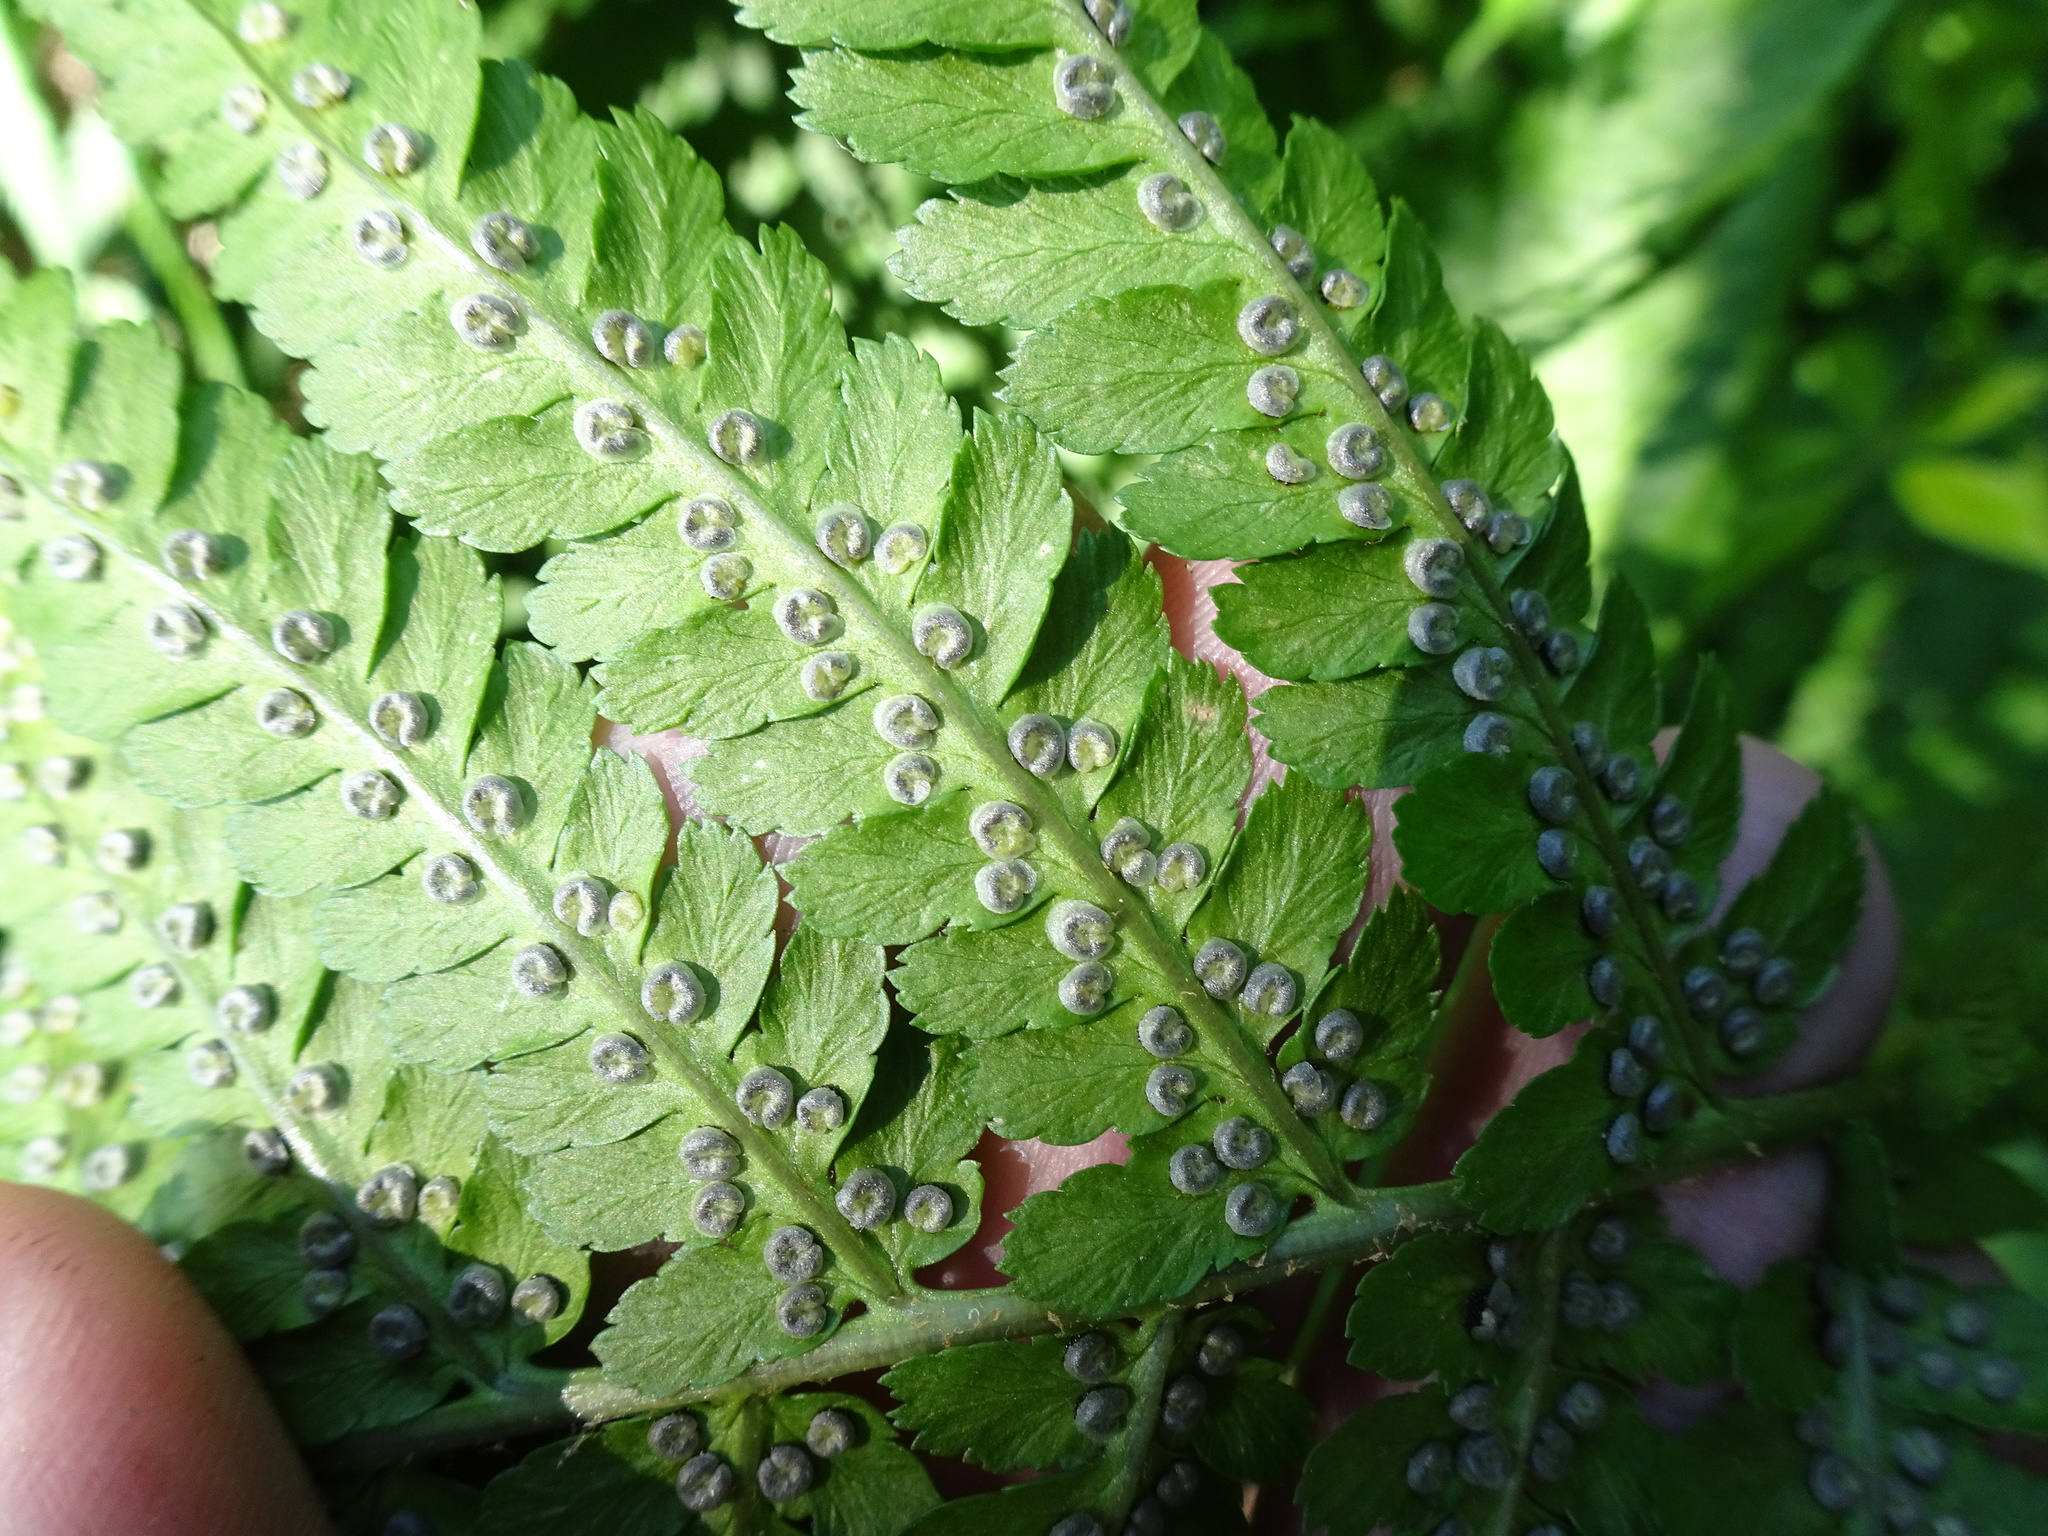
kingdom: Plantae
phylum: Tracheophyta
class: Polypodiopsida
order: Polypodiales
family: Dryopteridaceae
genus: Dryopteris
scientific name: Dryopteris filix-mas
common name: Male fern
